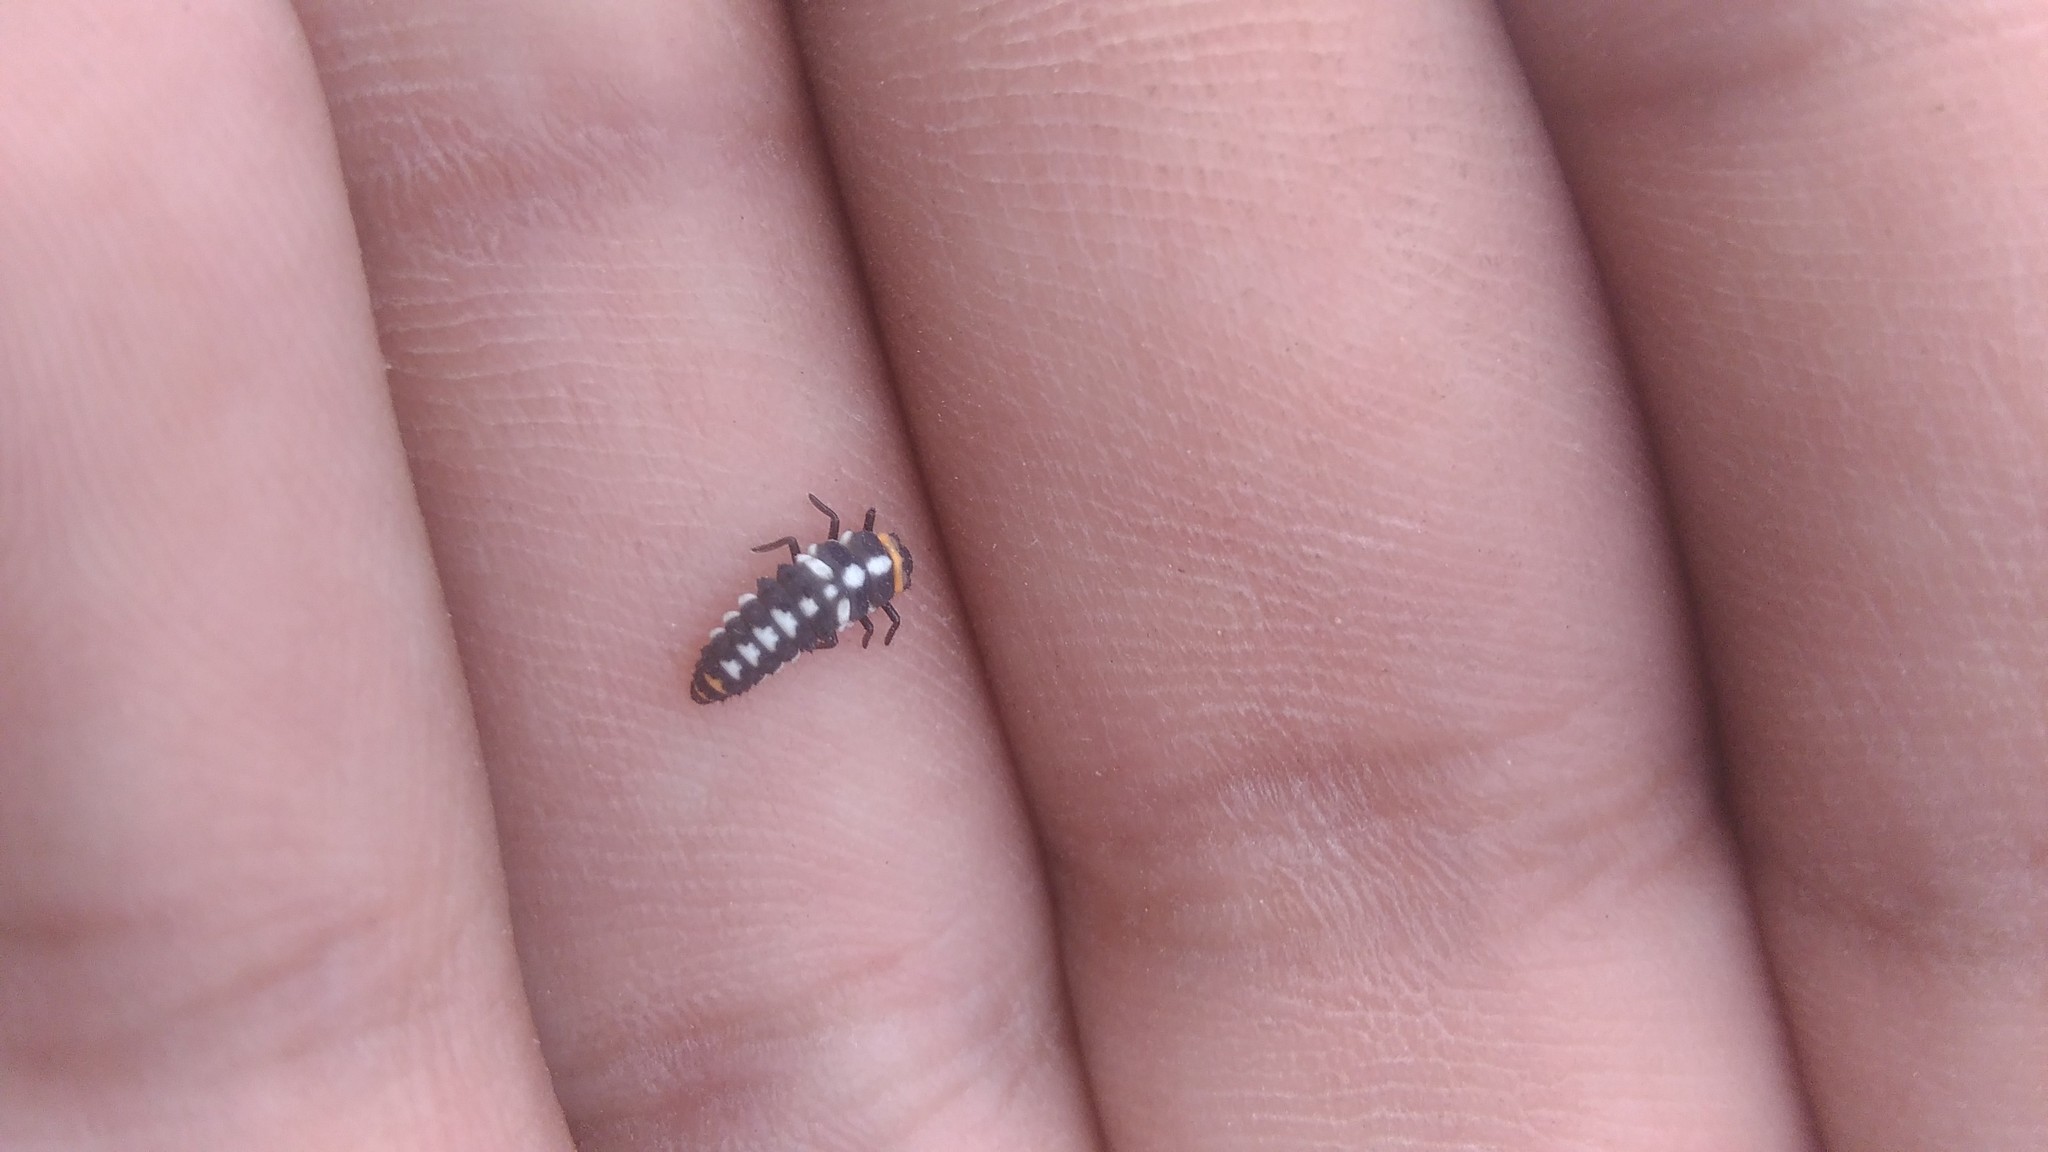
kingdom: Animalia
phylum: Arthropoda
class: Insecta
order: Coleoptera
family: Coccinellidae
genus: Eriopis
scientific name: Eriopis connexa
